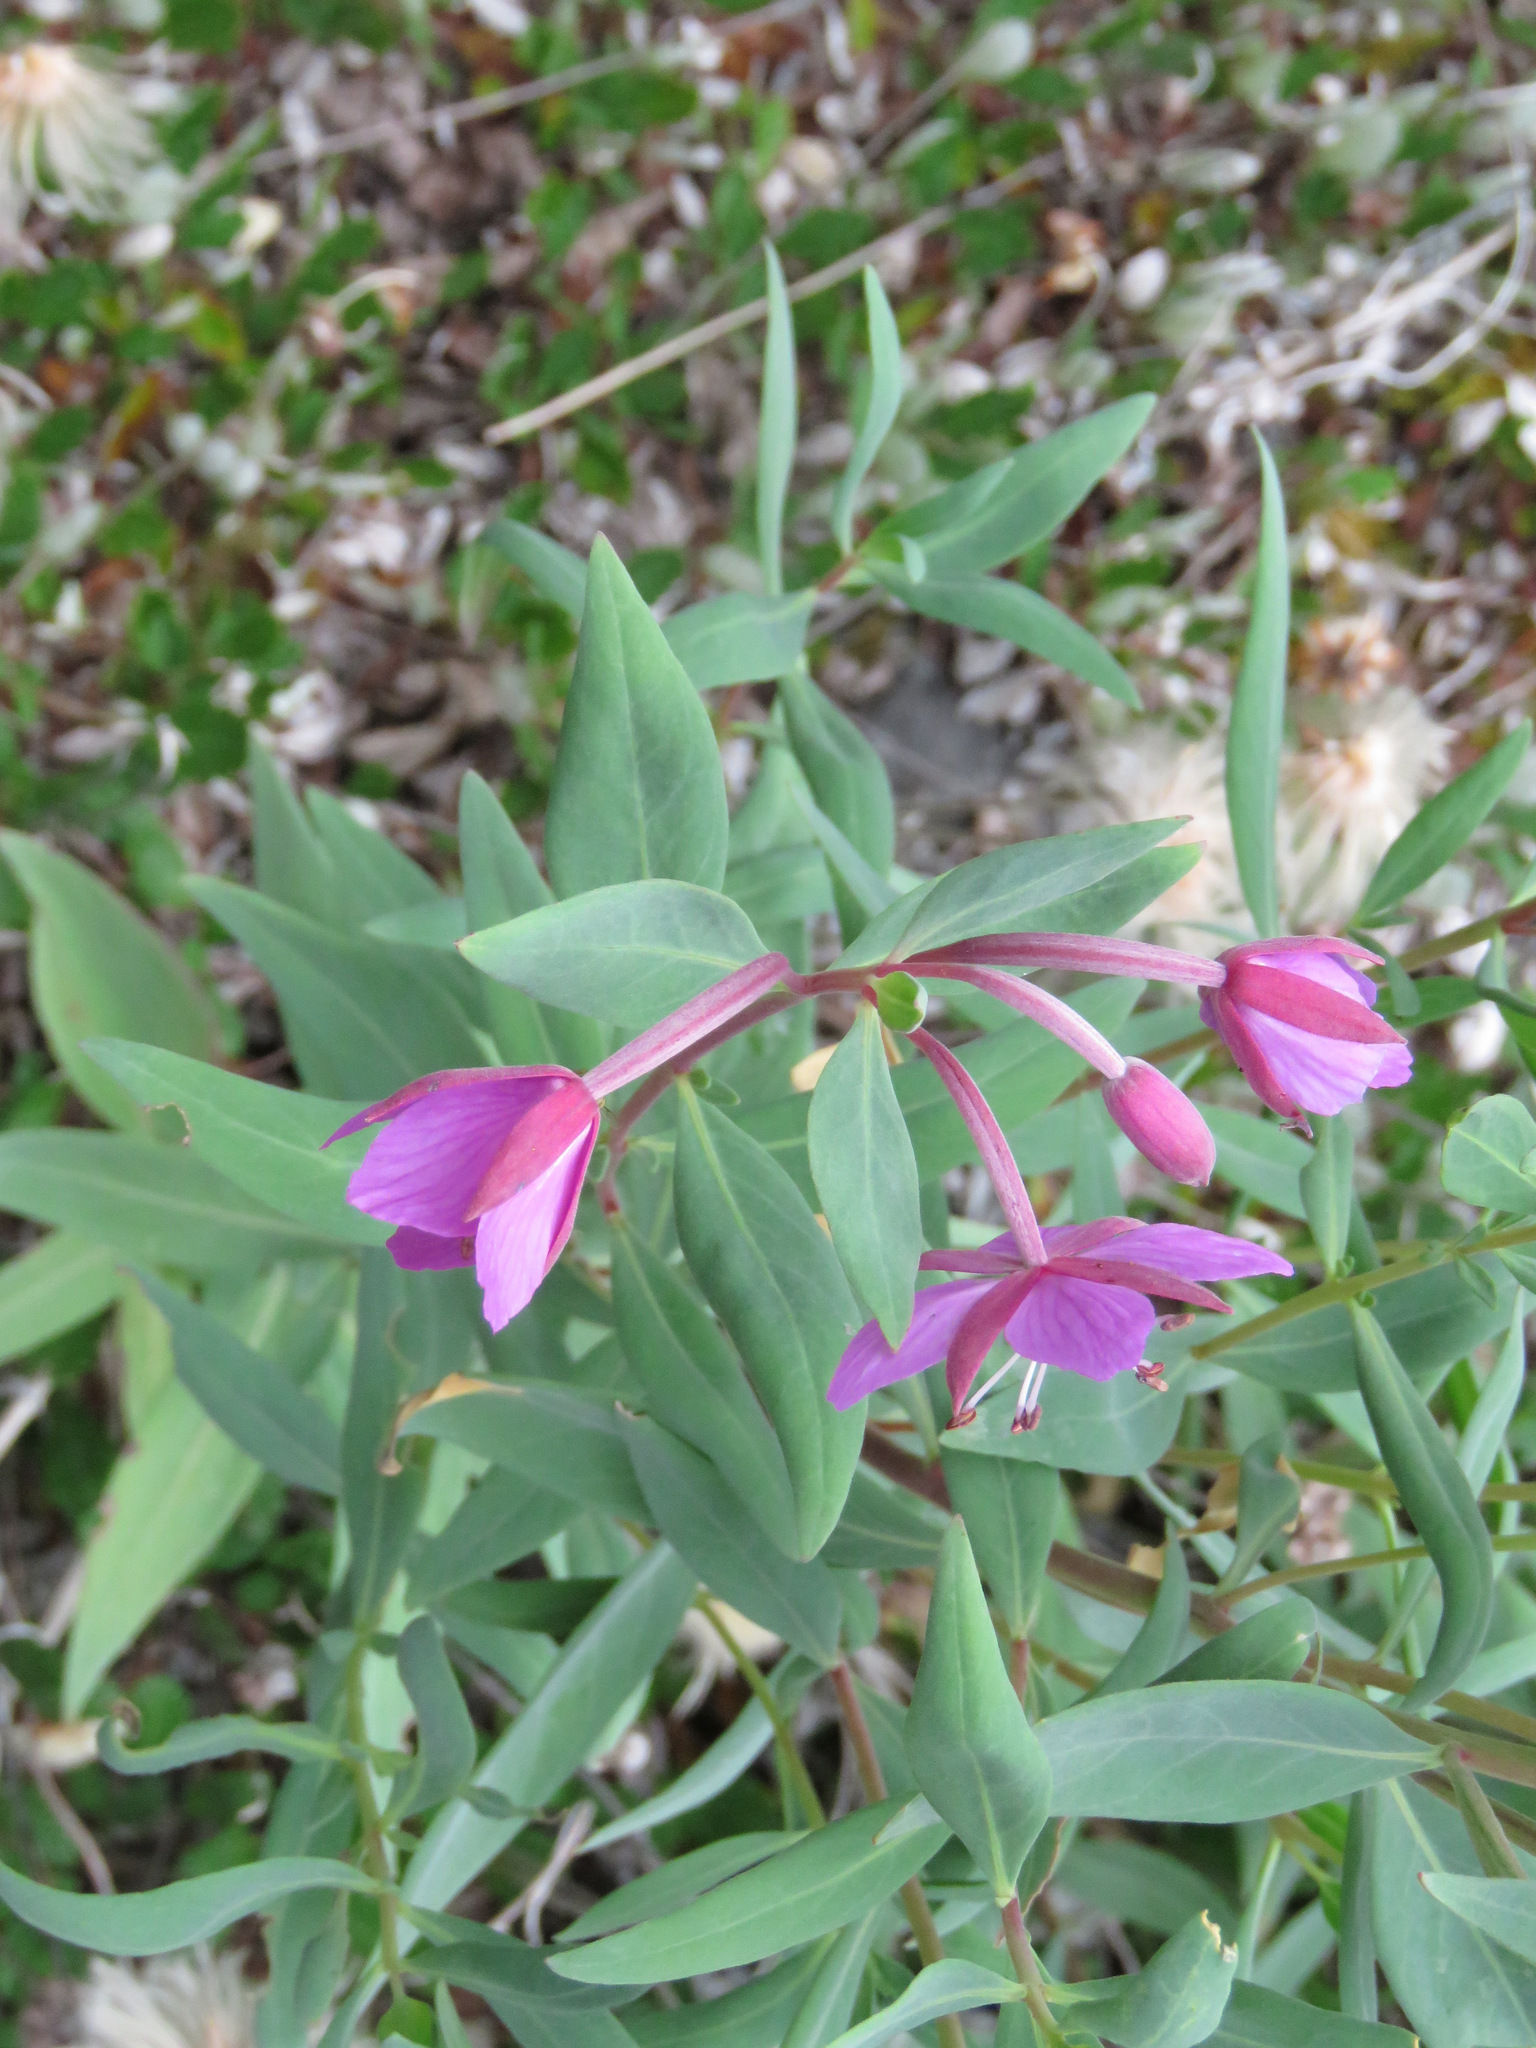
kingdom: Plantae
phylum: Tracheophyta
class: Magnoliopsida
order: Myrtales
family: Onagraceae
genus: Chamaenerion
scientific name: Chamaenerion latifolium
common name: Dwarf fireweed
